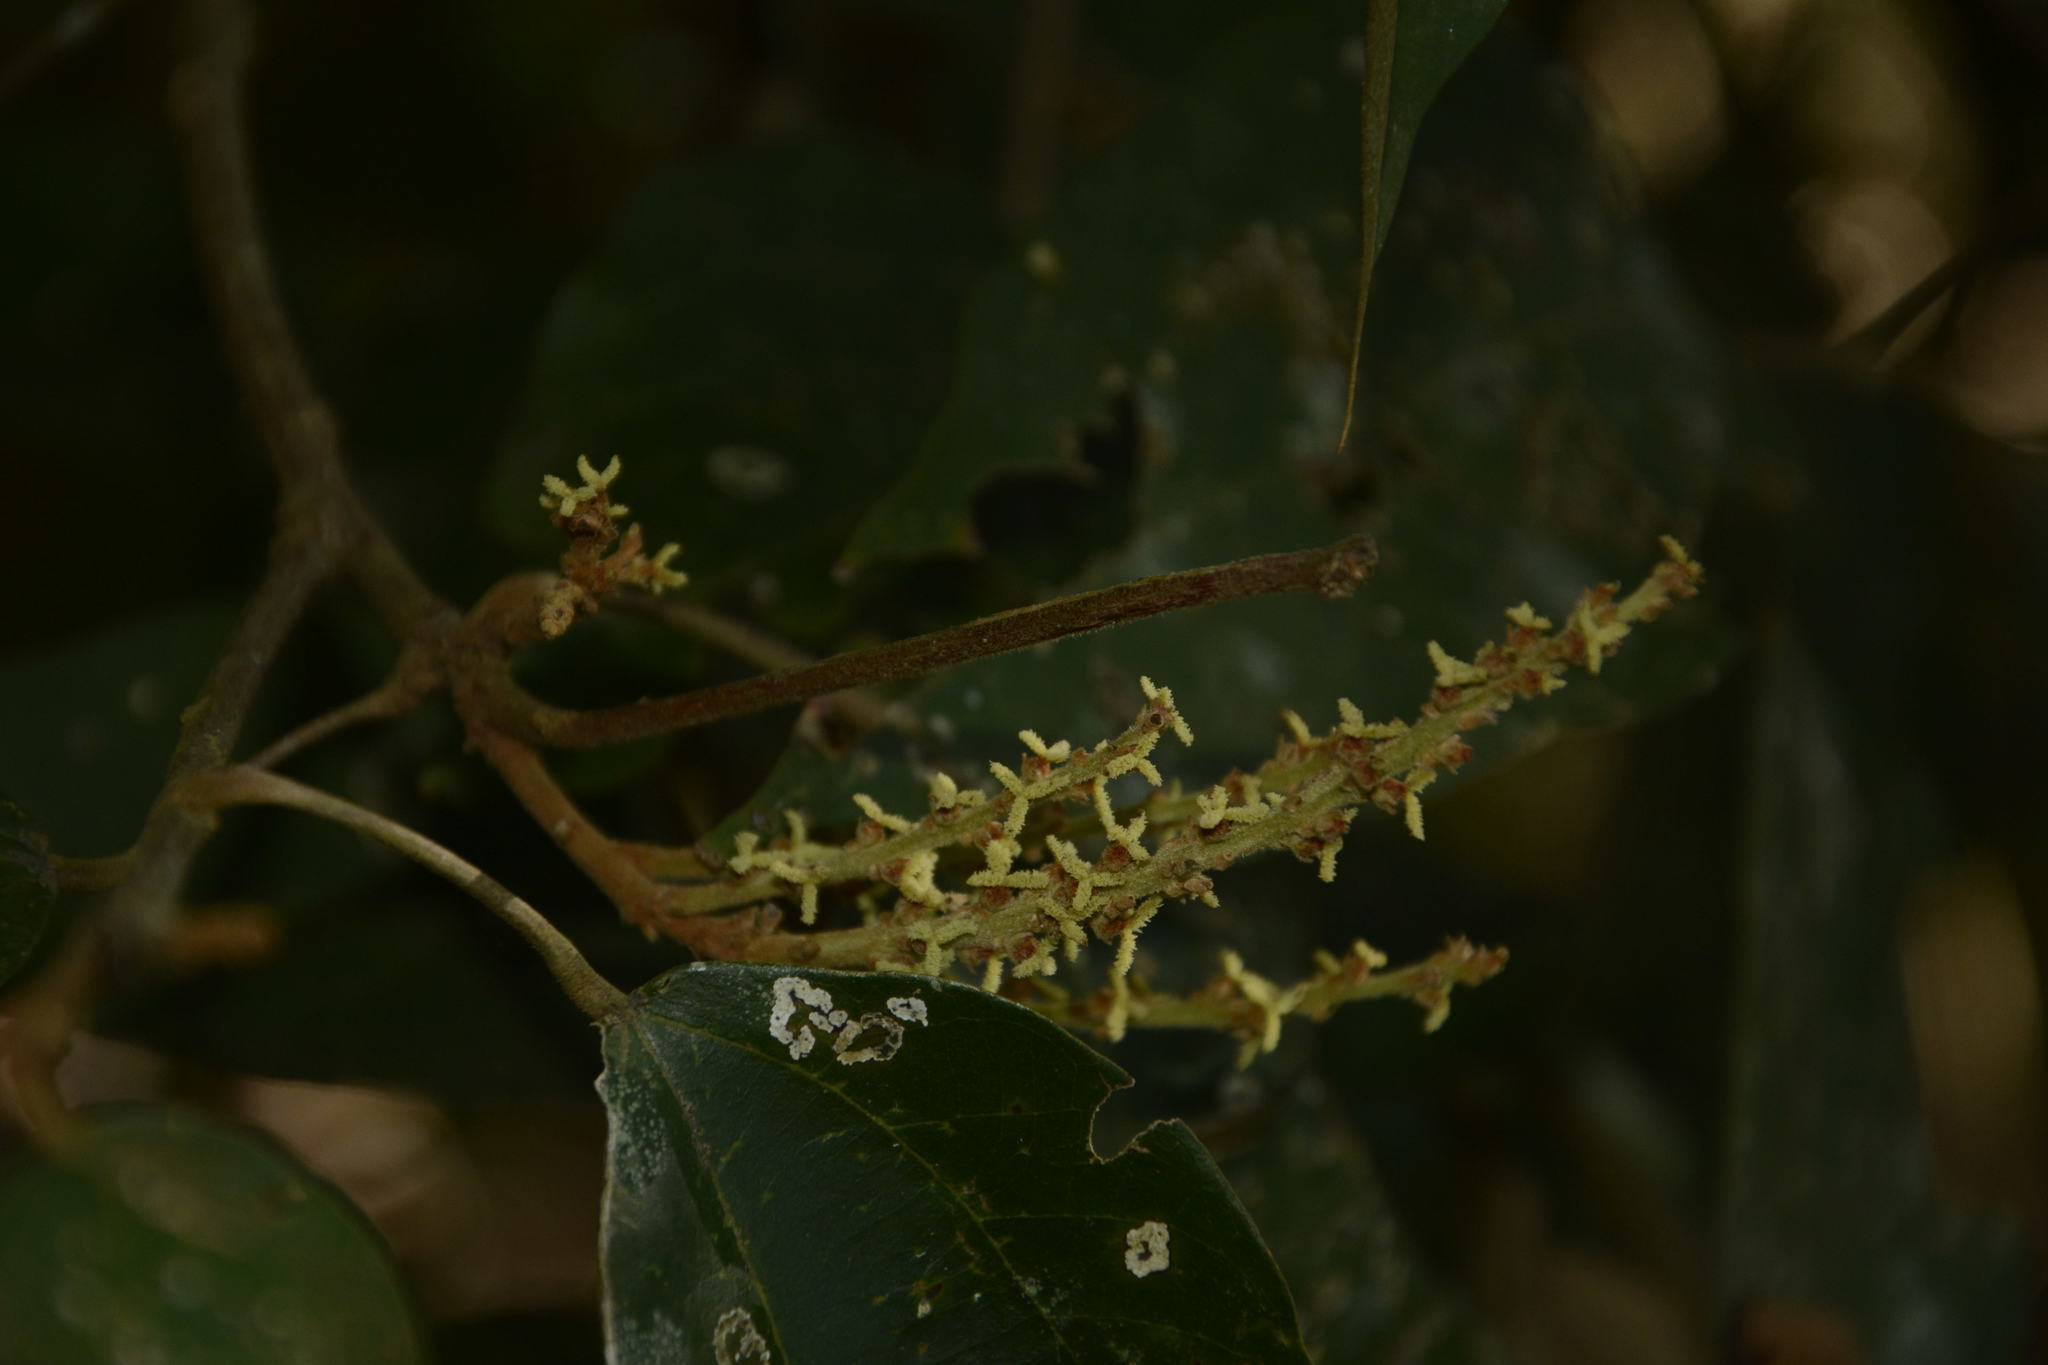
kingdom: Plantae
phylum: Tracheophyta
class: Magnoliopsida
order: Malpighiales
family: Euphorbiaceae
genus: Mallotus
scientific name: Mallotus philippensis
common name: Kamala tree
